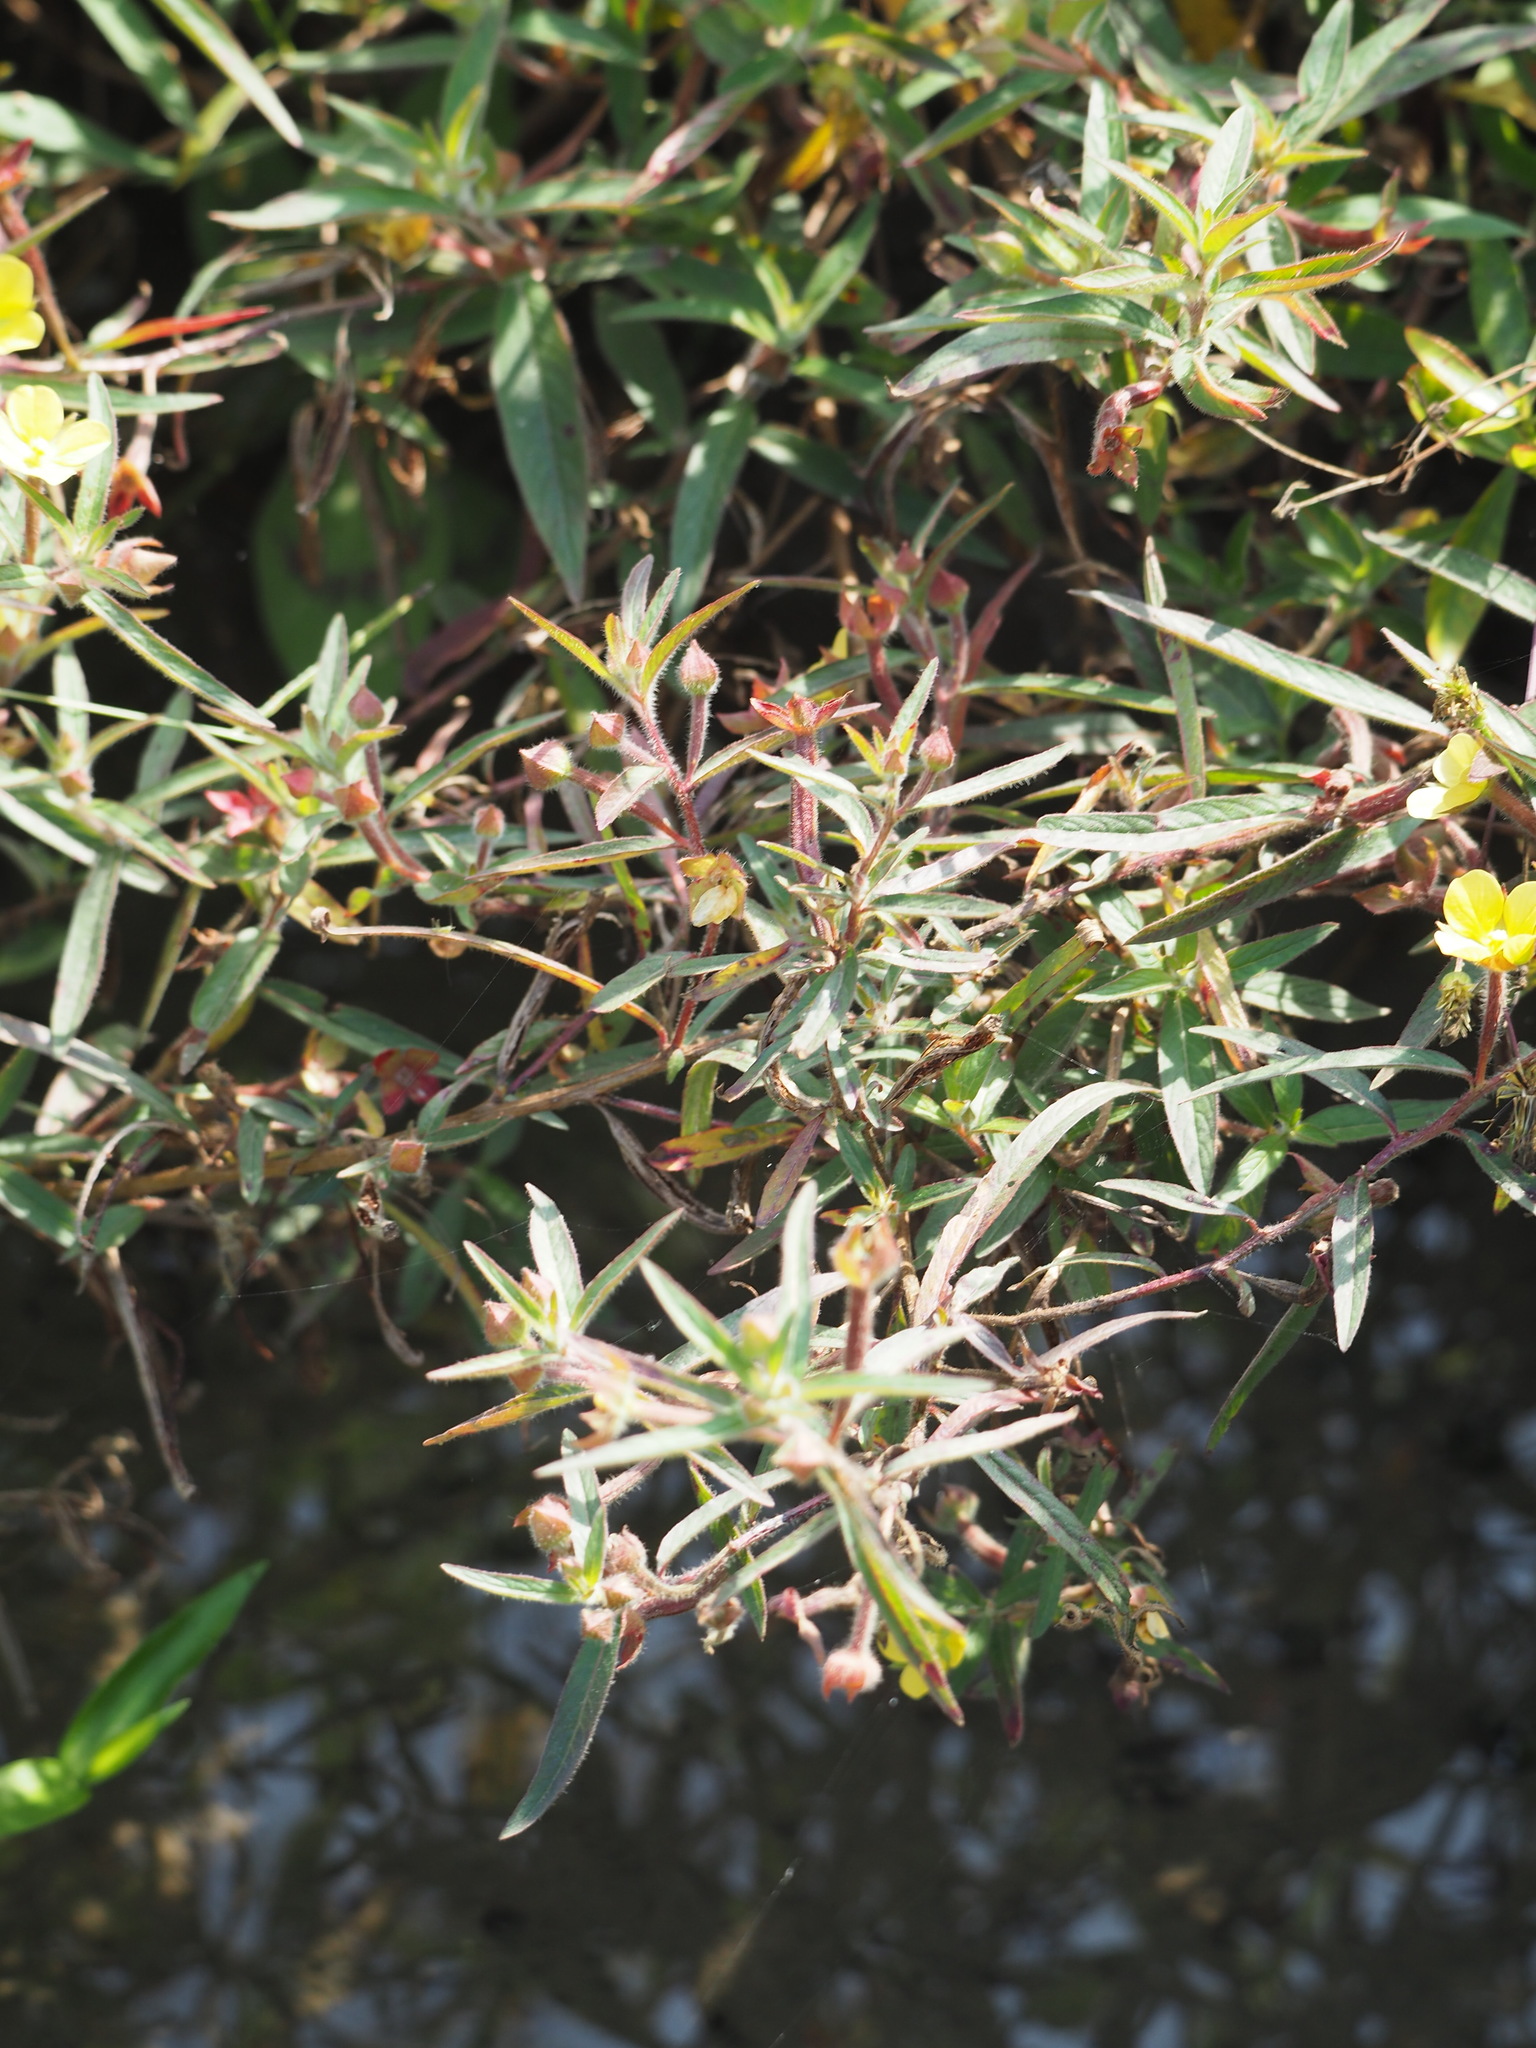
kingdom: Plantae
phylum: Tracheophyta
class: Magnoliopsida
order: Myrtales
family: Onagraceae
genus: Ludwigia
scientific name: Ludwigia octovalvis
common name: Water-primrose
